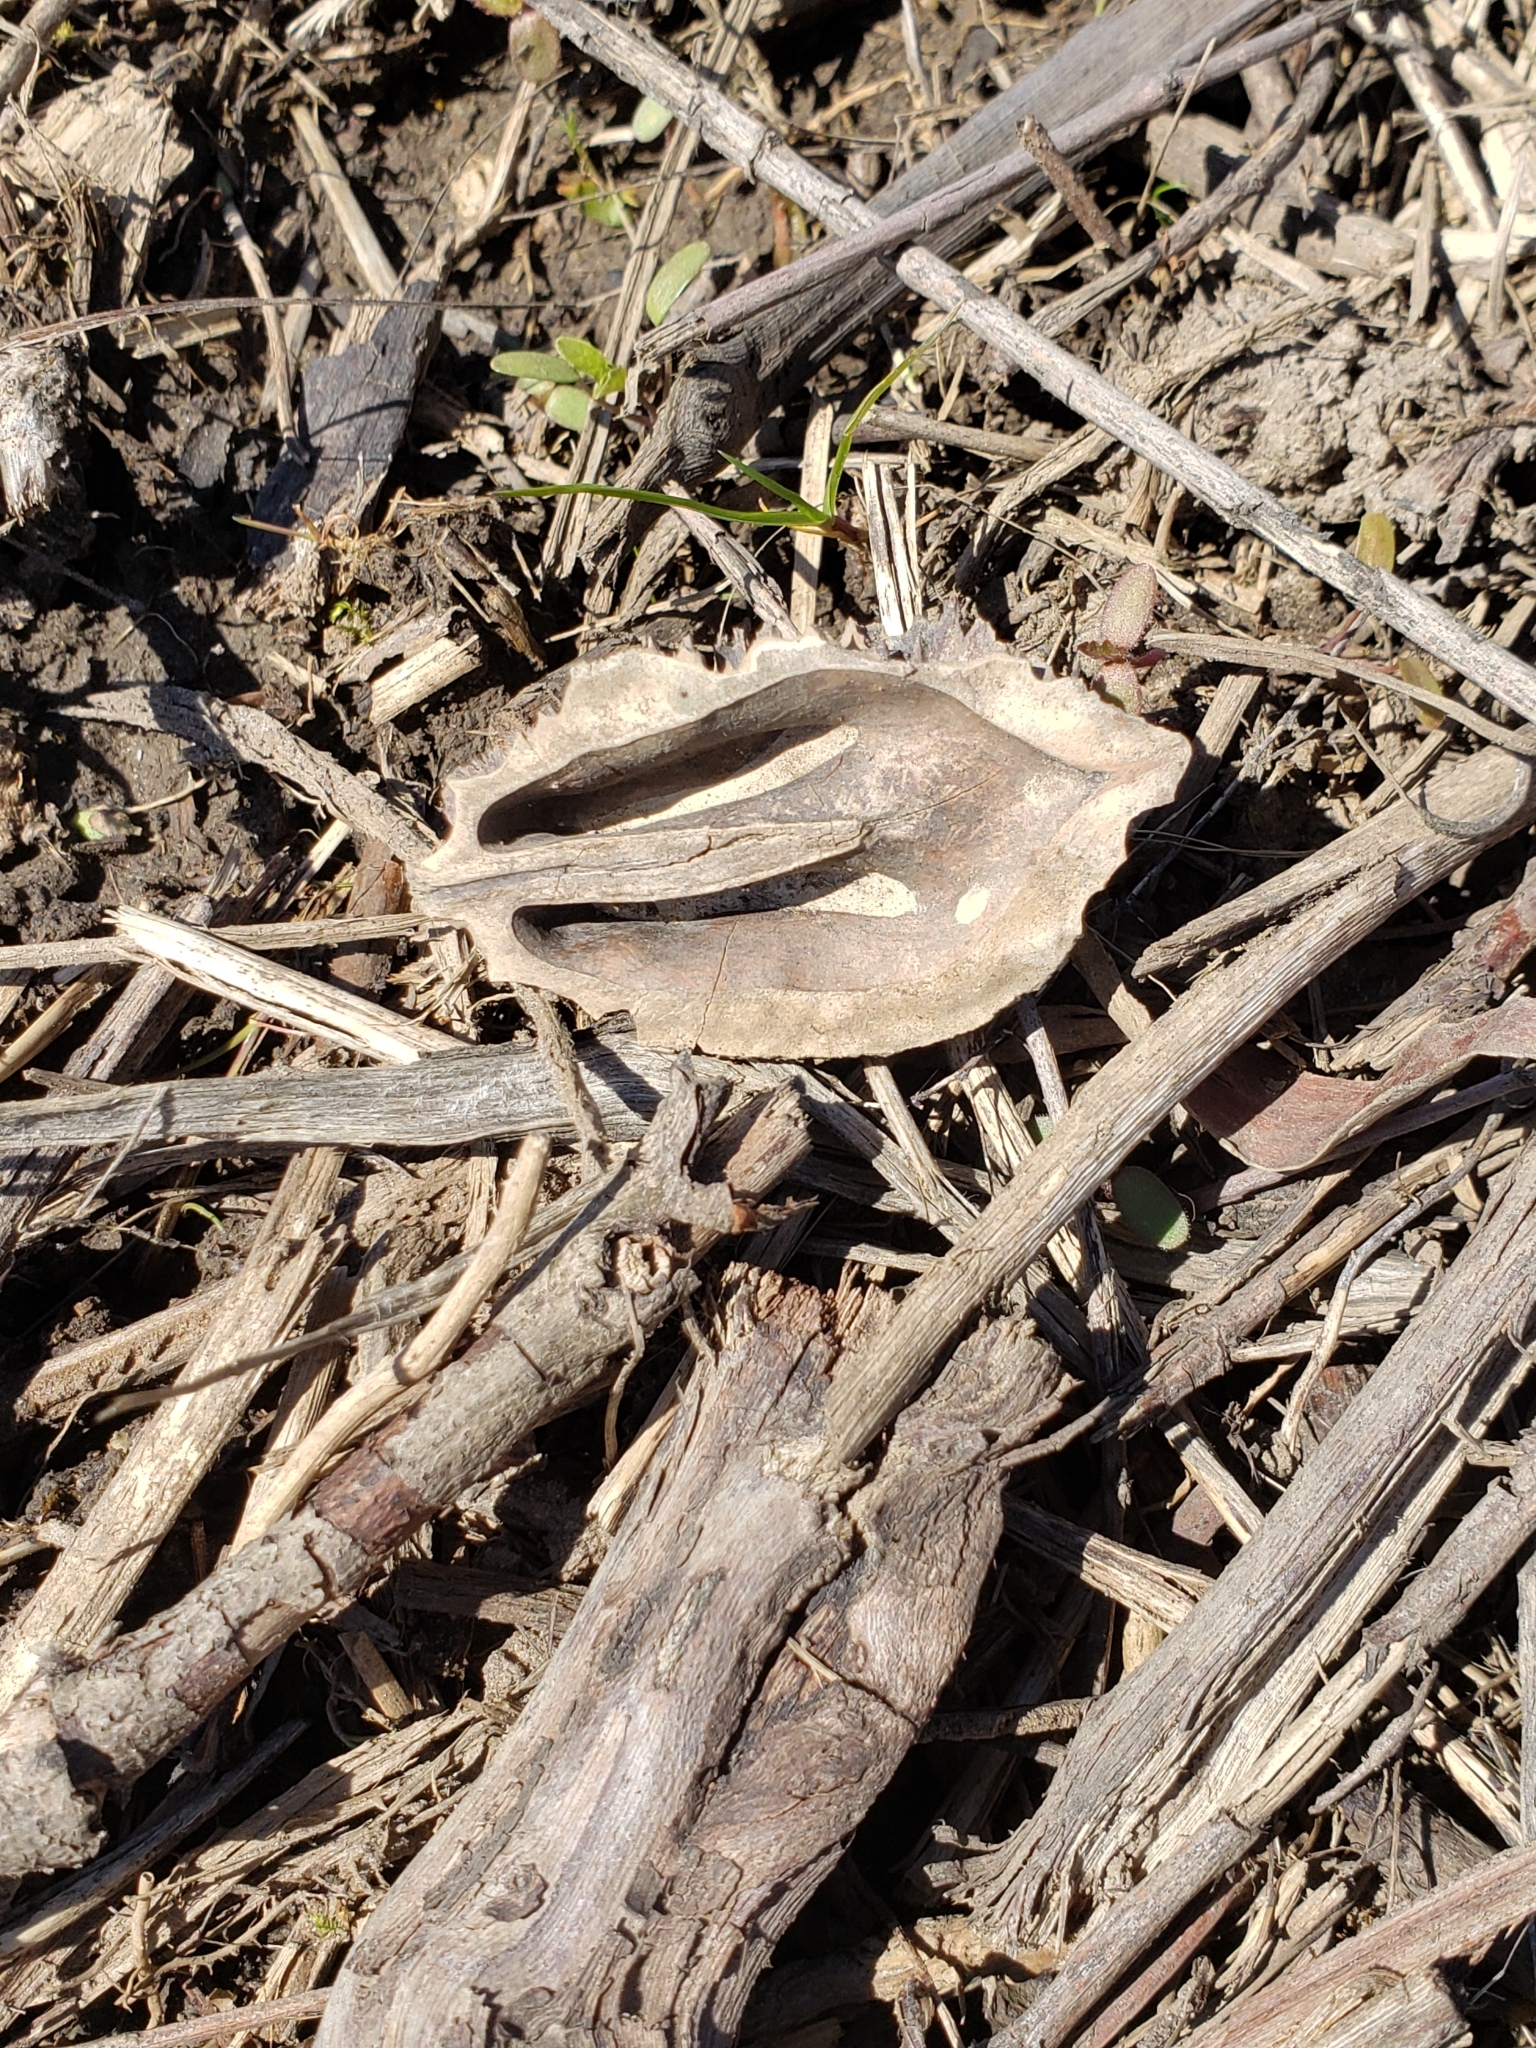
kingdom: Plantae
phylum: Tracheophyta
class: Magnoliopsida
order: Fagales
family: Juglandaceae
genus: Juglans
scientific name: Juglans cinerea
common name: Butternut
